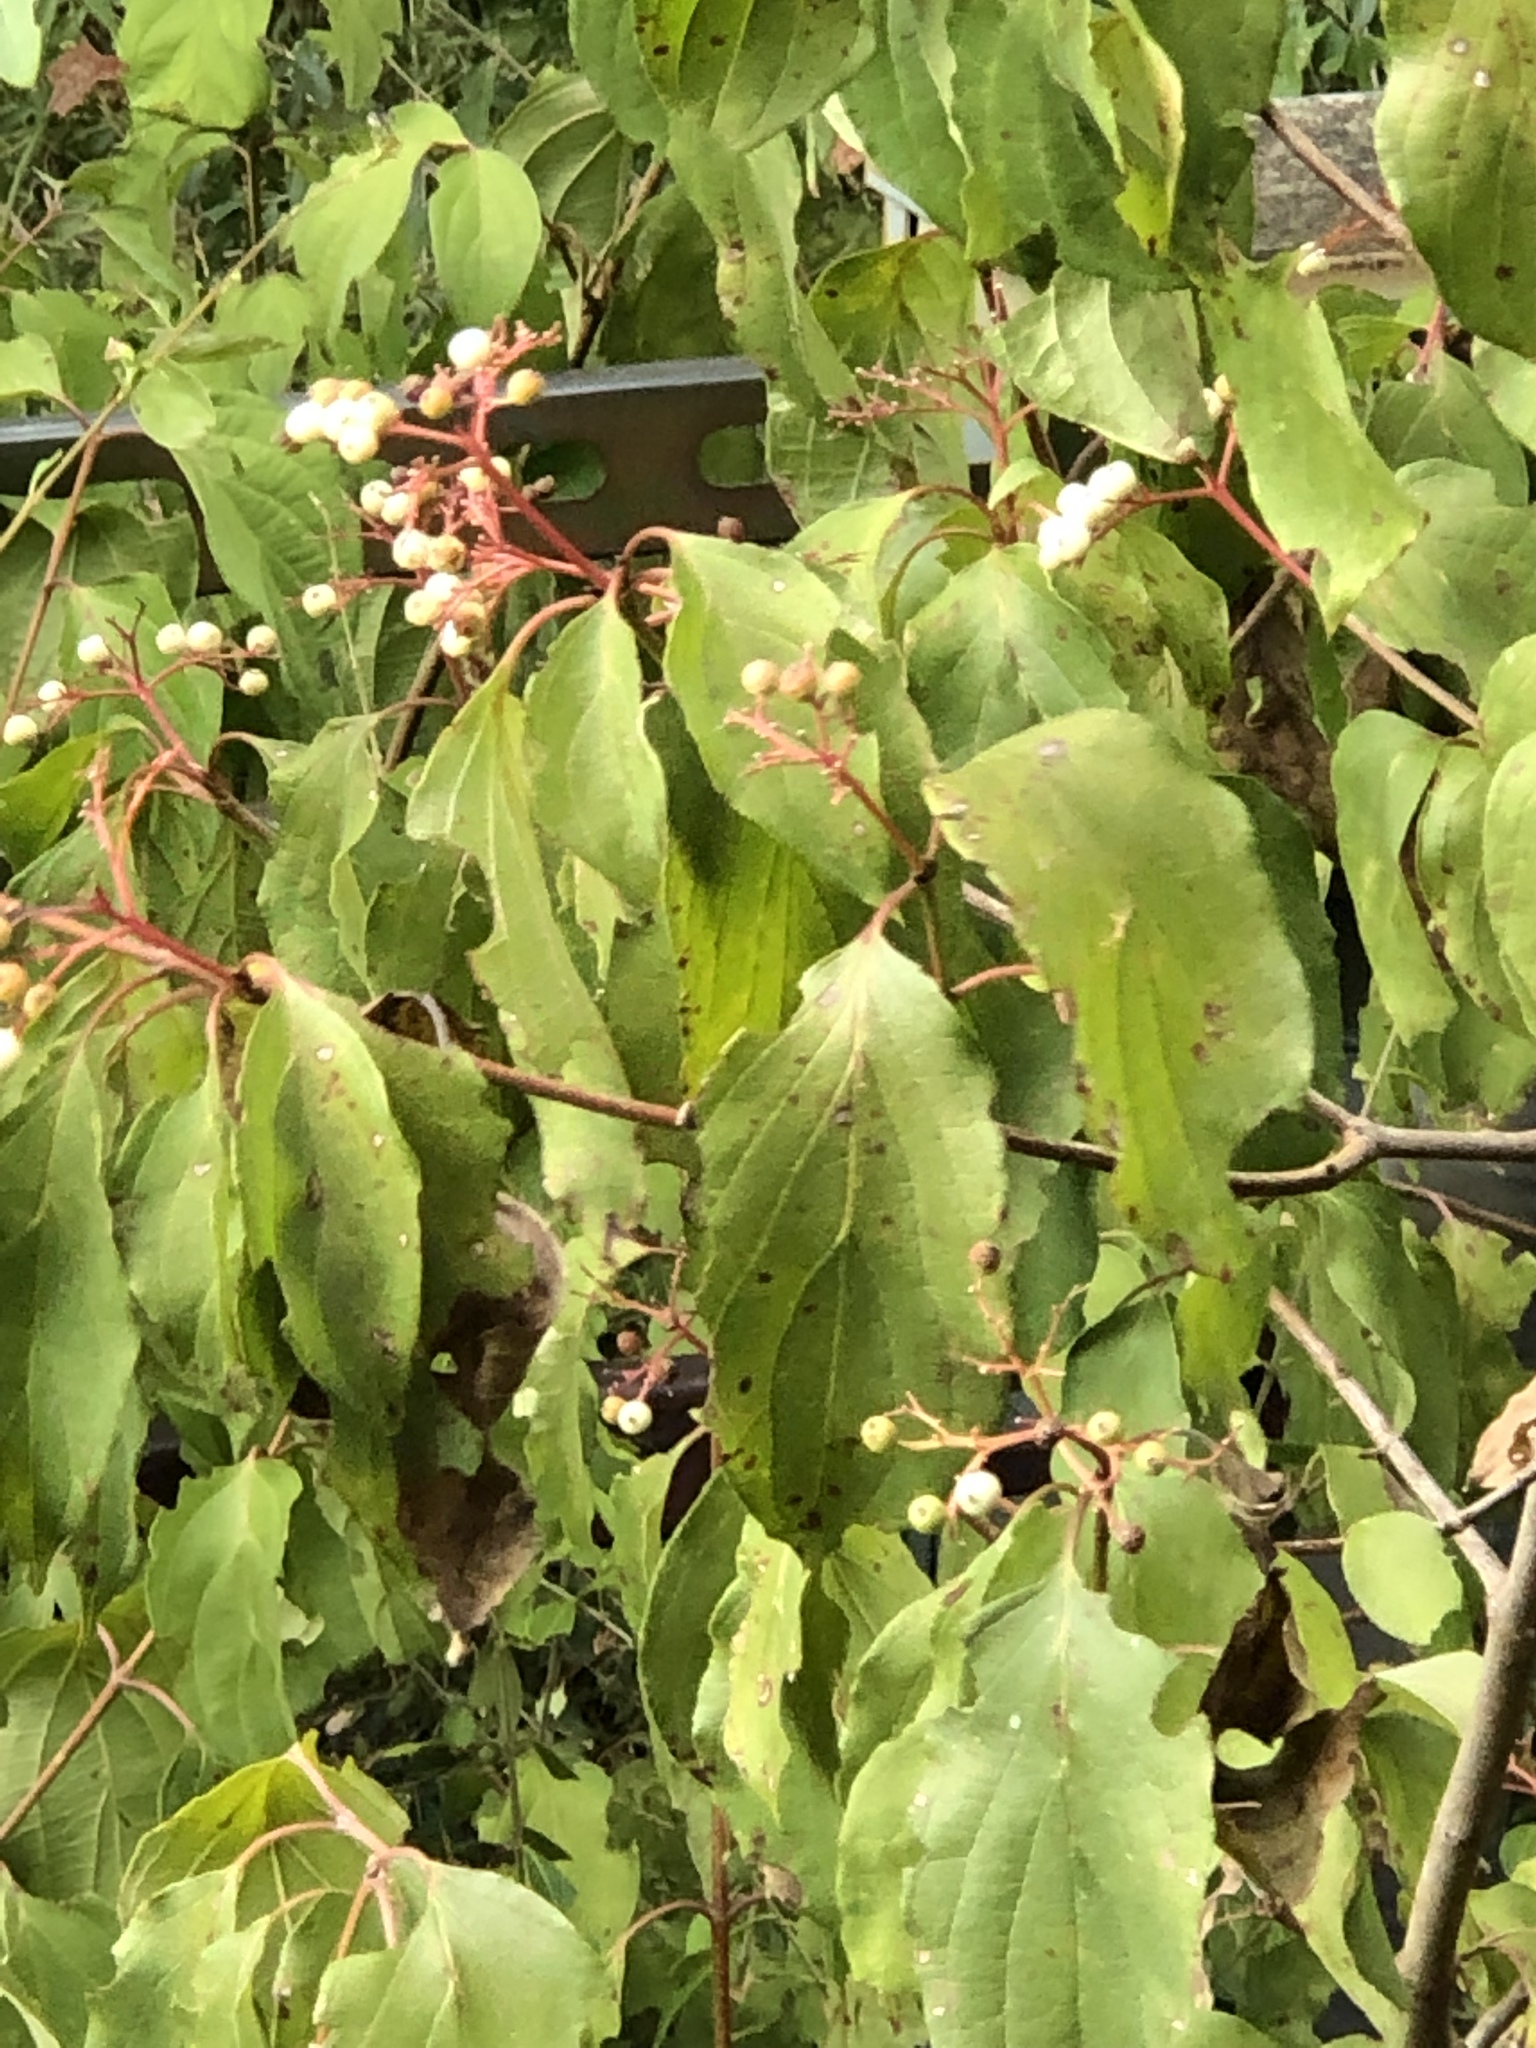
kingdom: Plantae
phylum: Tracheophyta
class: Magnoliopsida
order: Cornales
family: Cornaceae
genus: Cornus
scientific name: Cornus drummondii
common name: Rough-leaf dogwood
